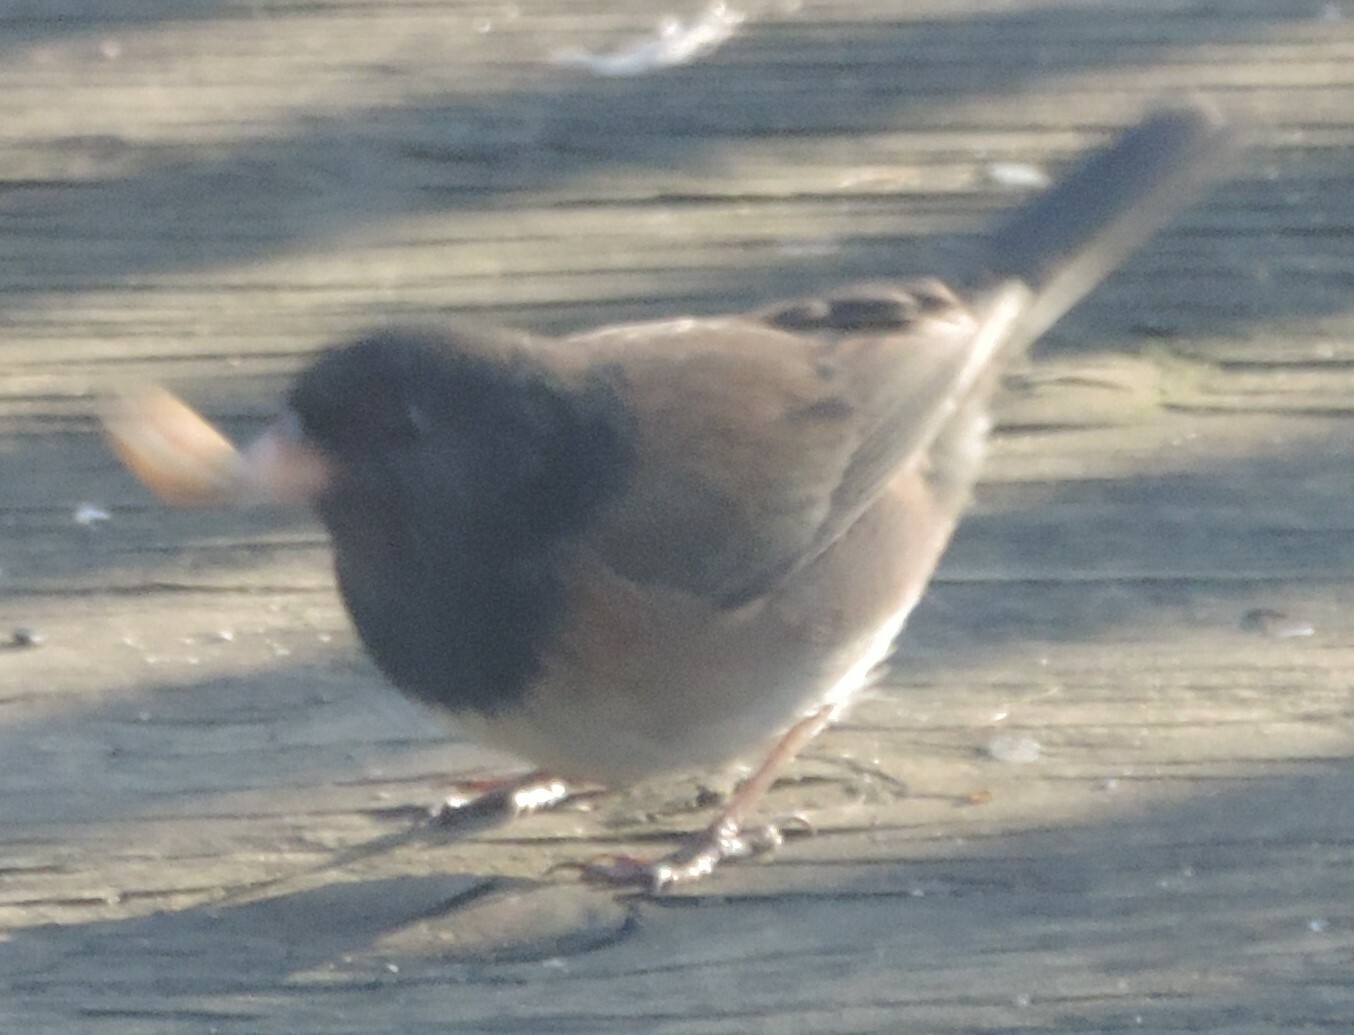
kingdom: Animalia
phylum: Chordata
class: Aves
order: Passeriformes
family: Passerellidae
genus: Junco
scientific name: Junco hyemalis
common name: Dark-eyed junco
